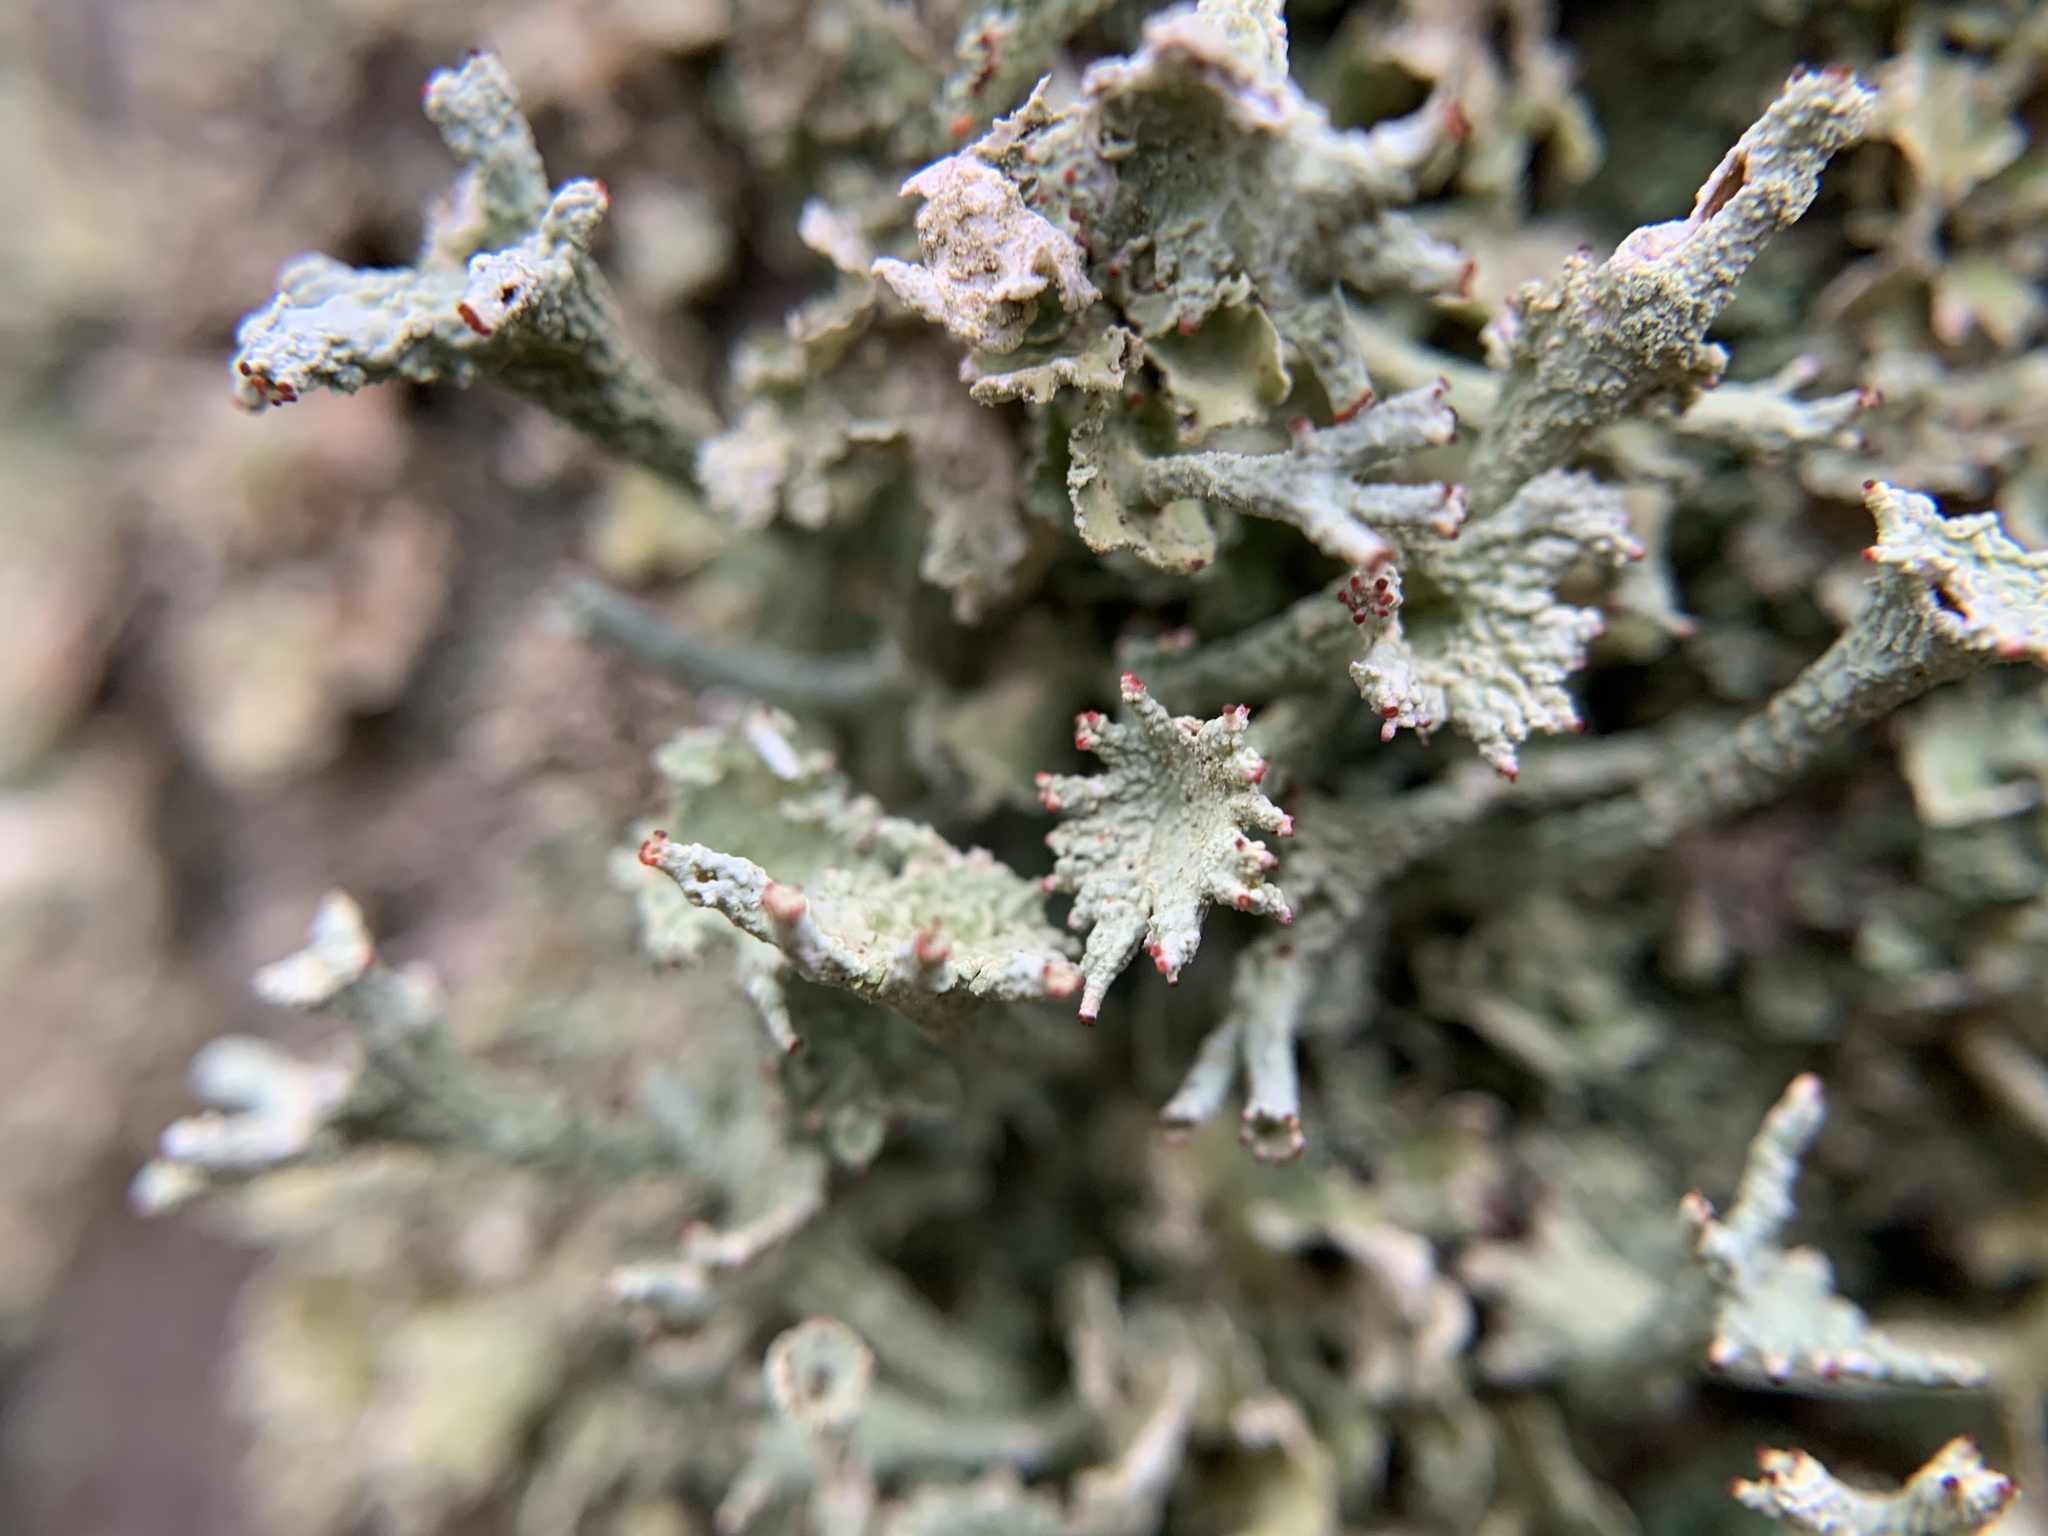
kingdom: Fungi
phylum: Ascomycota
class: Lecanoromycetes
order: Lecanorales
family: Cladoniaceae
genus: Cladonia
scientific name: Cladonia digitata
